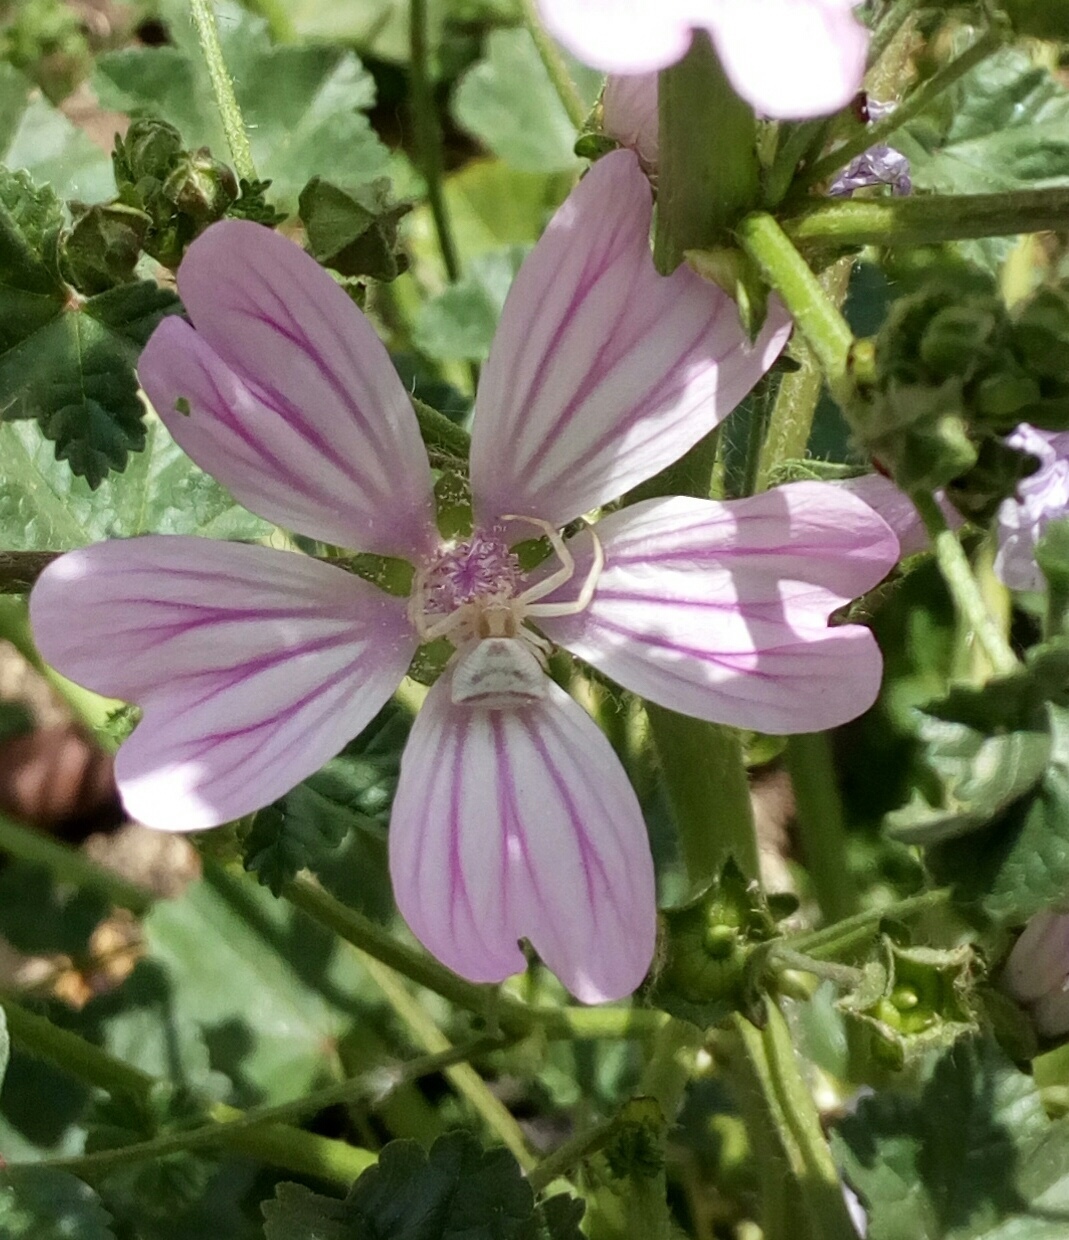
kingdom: Animalia
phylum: Arthropoda
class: Arachnida
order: Araneae
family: Thomisidae
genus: Thomisus
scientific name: Thomisus onustus
